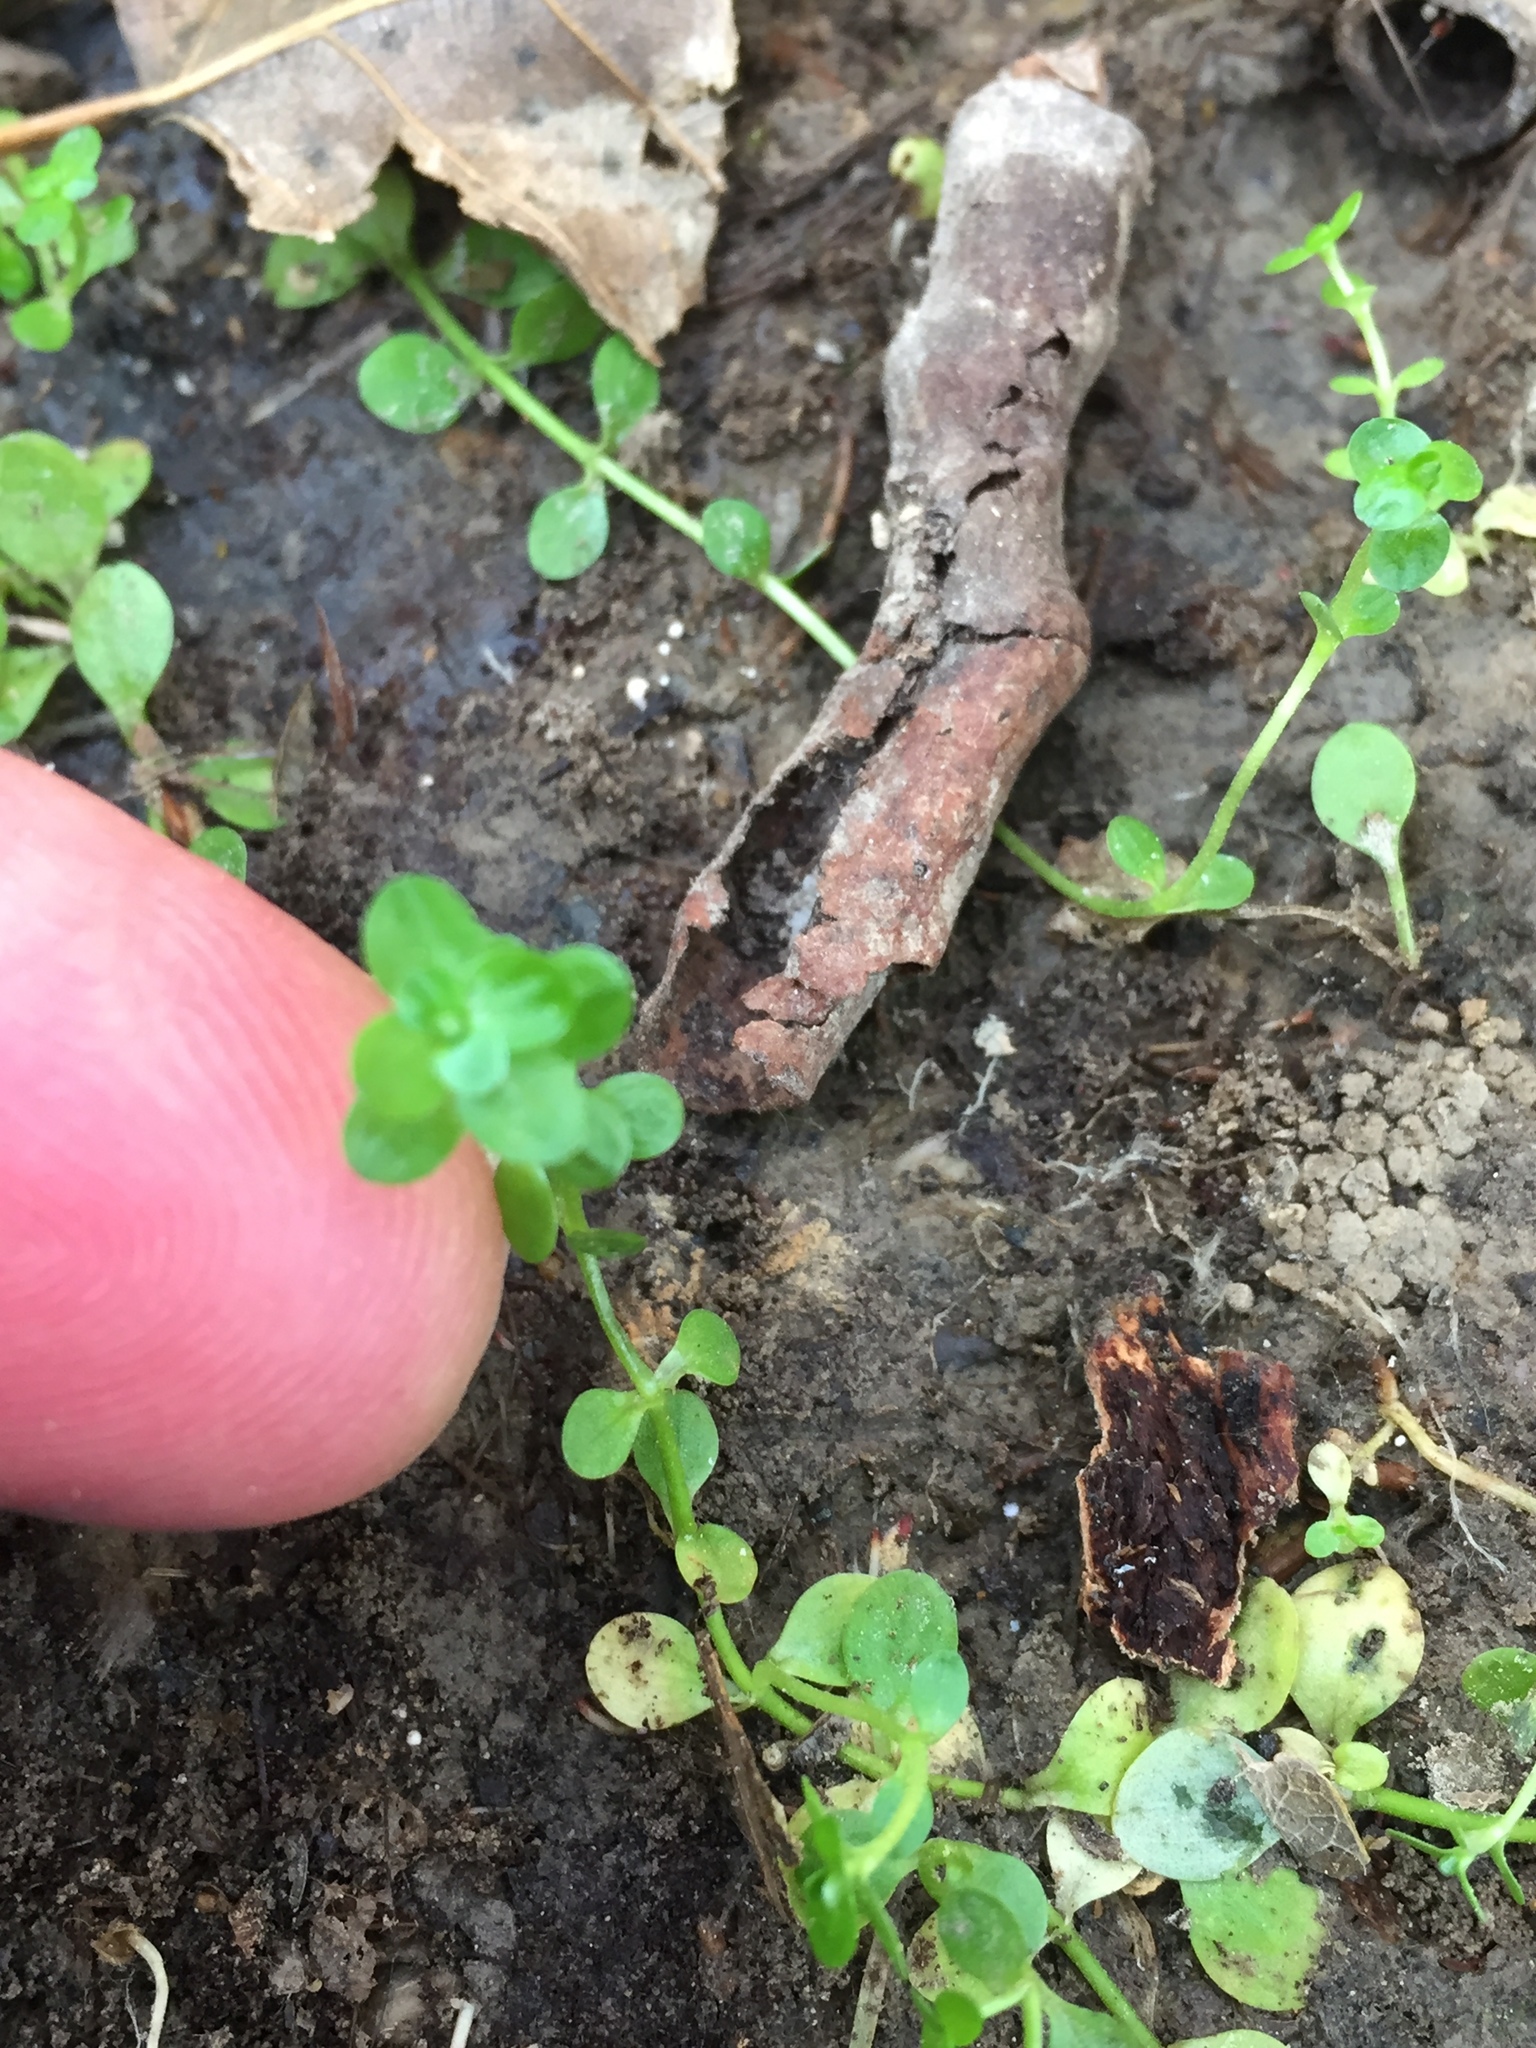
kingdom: Plantae
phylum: Tracheophyta
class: Magnoliopsida
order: Lamiales
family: Plantaginaceae
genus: Callitriche
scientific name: Callitriche stagnalis
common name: Common water-starwort
